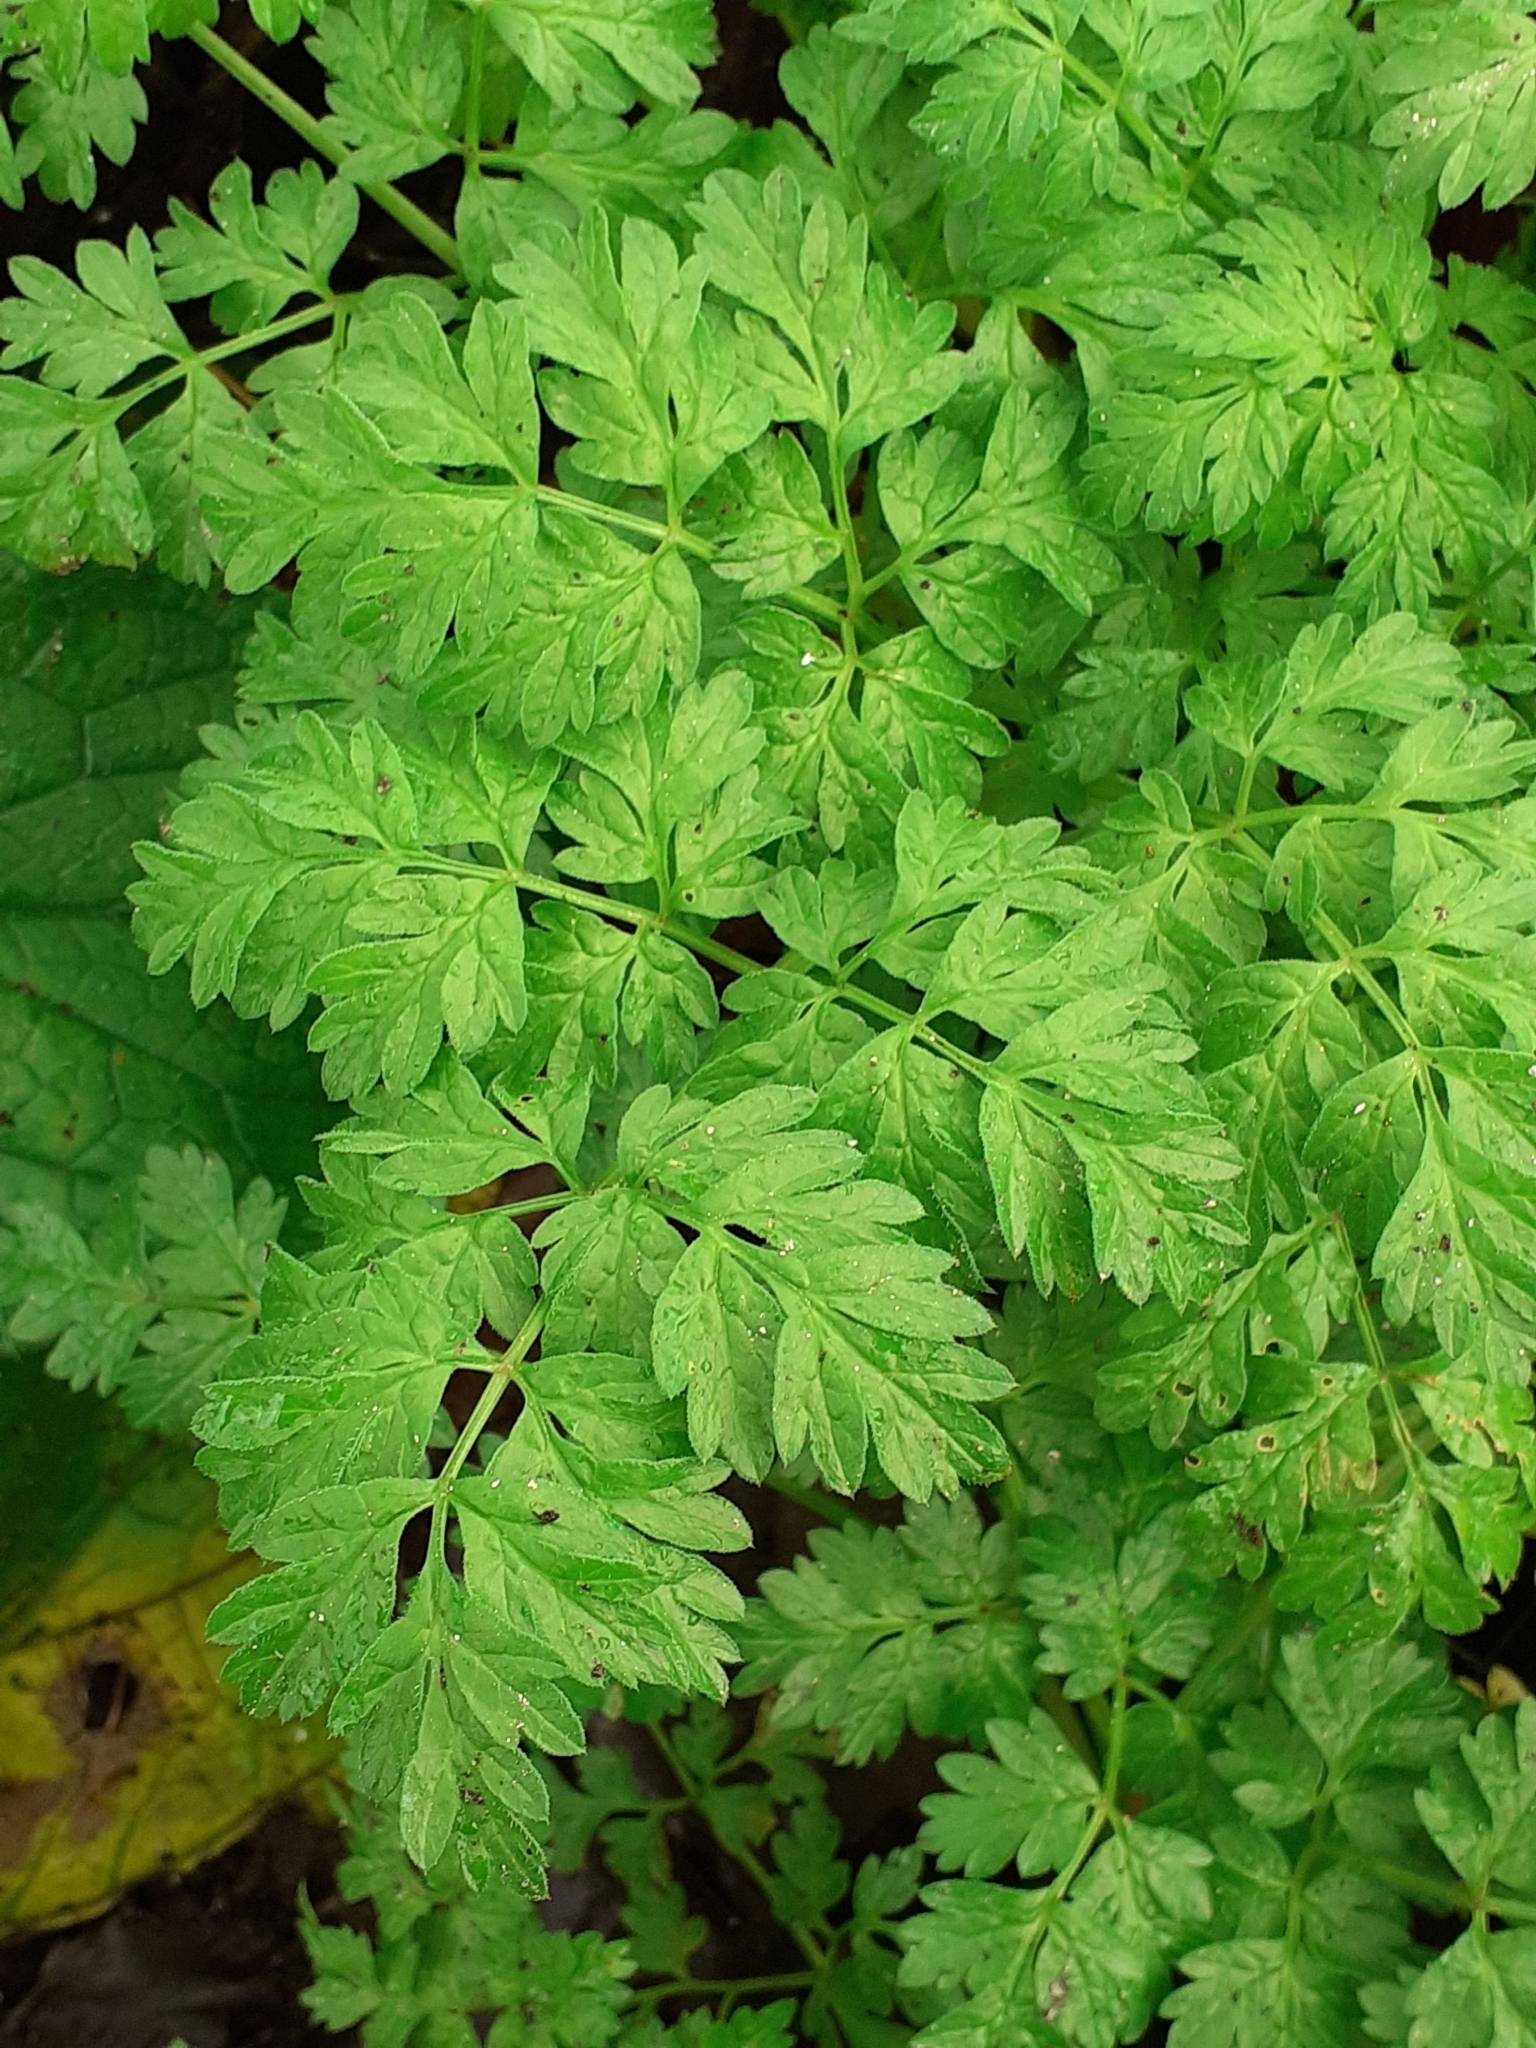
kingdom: Plantae
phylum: Tracheophyta
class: Magnoliopsida
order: Apiales
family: Apiaceae
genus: Anthriscus
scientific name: Anthriscus sylvestris
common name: Cow parsley
